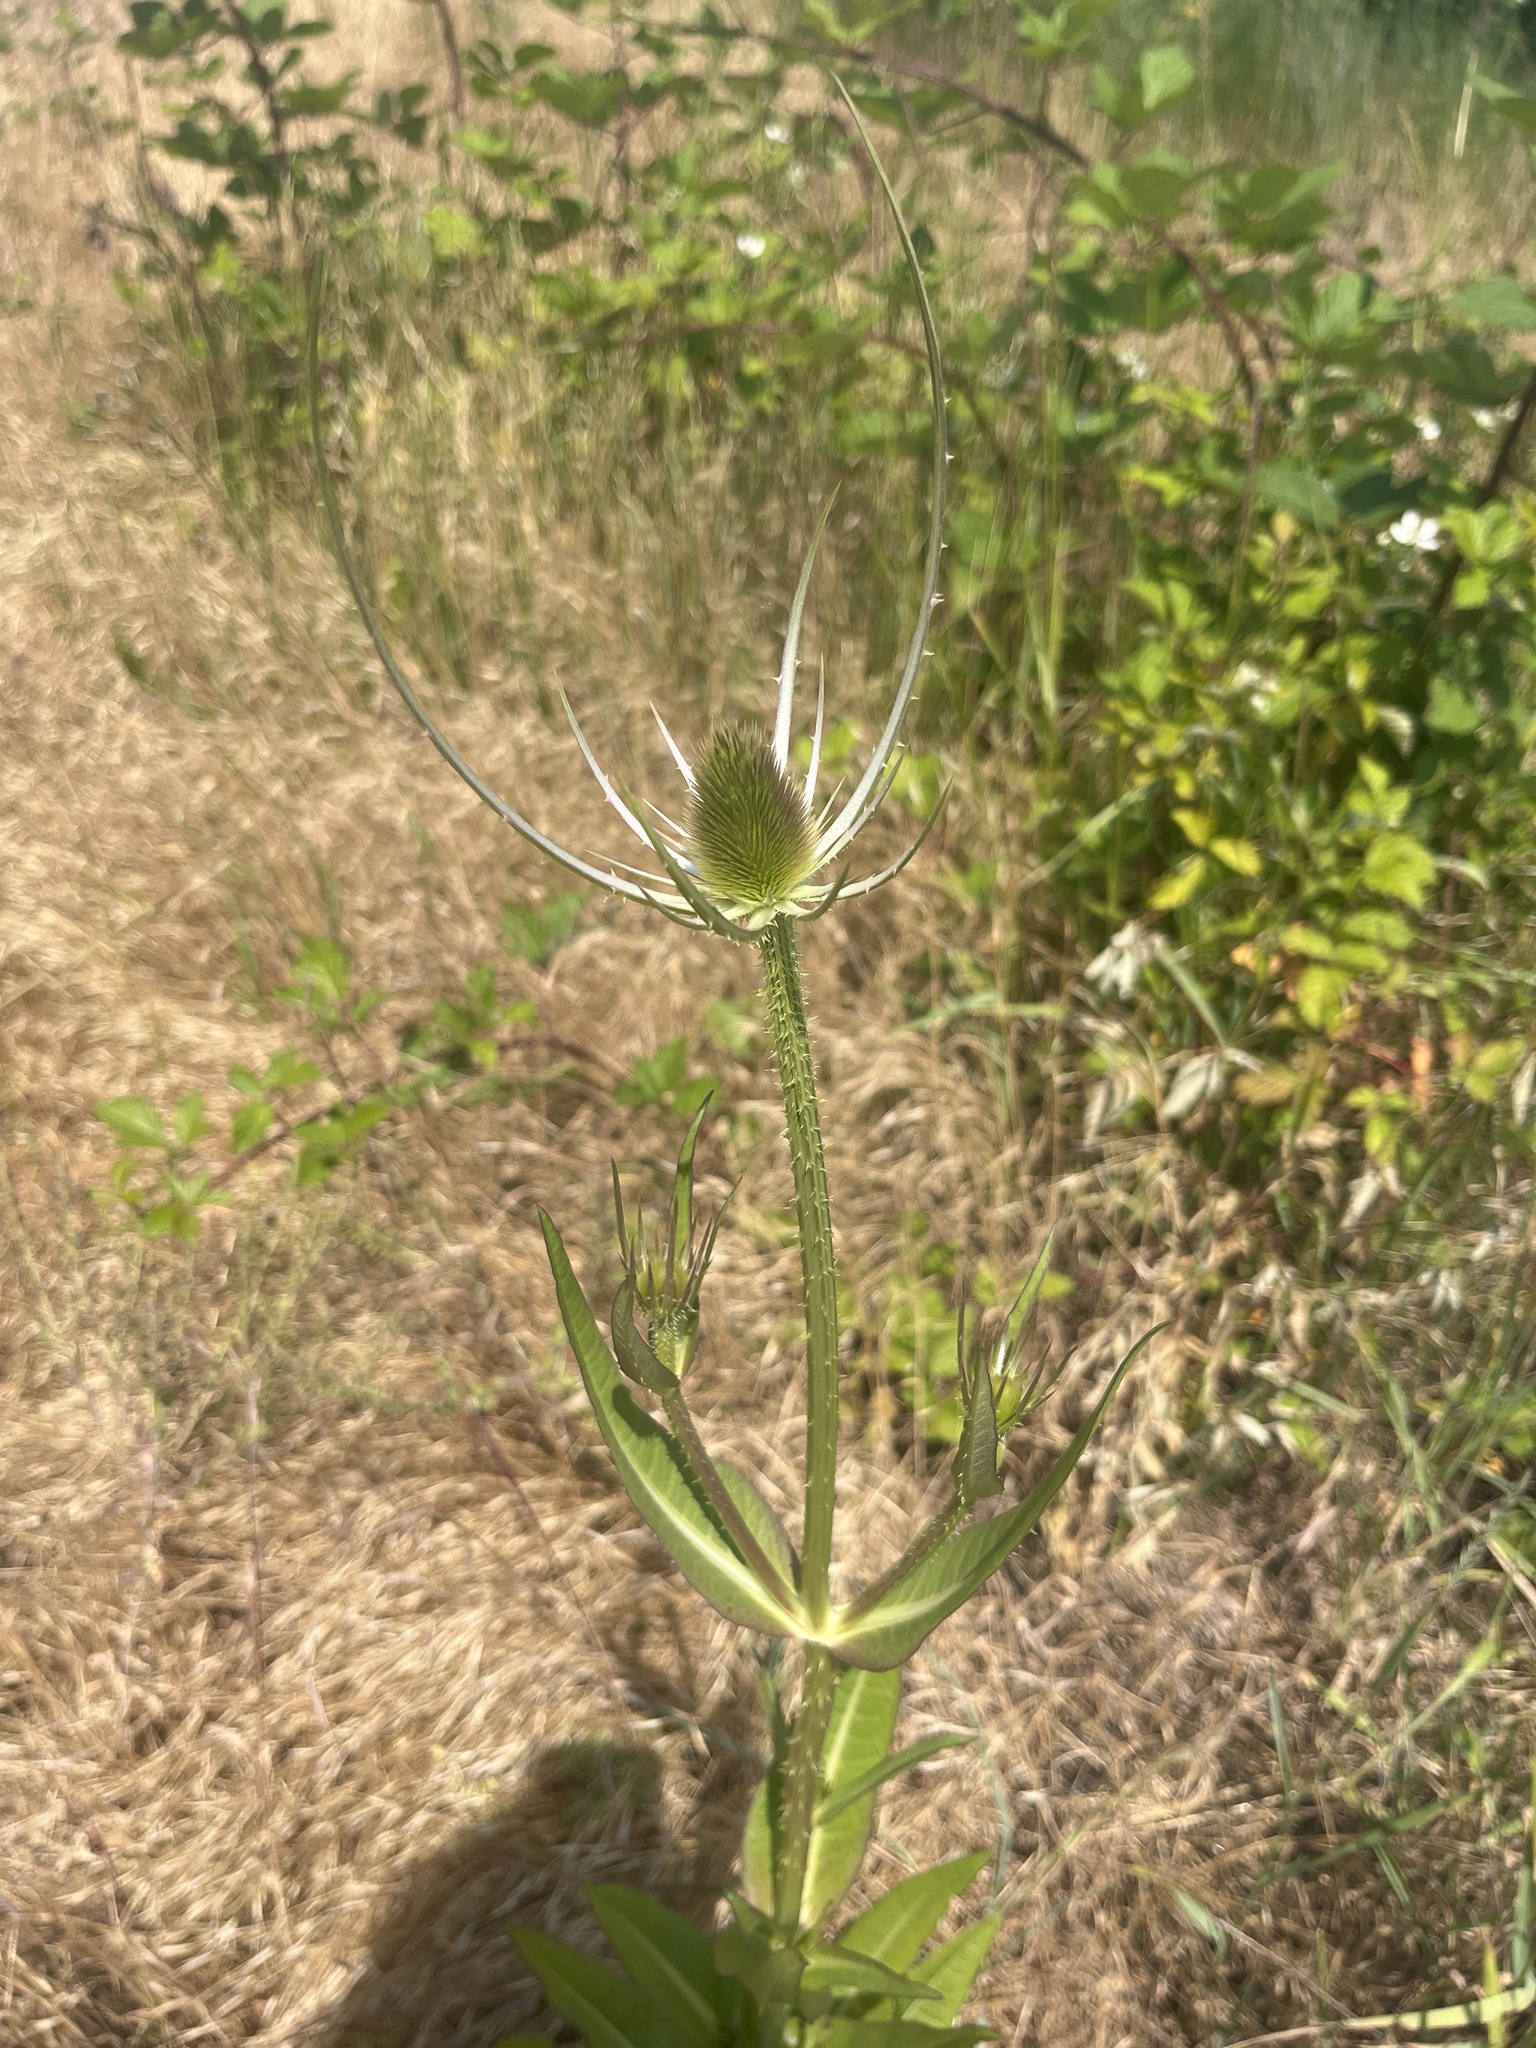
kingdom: Plantae
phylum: Tracheophyta
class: Magnoliopsida
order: Dipsacales
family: Caprifoliaceae
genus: Dipsacus
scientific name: Dipsacus fullonum
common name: Teasel
